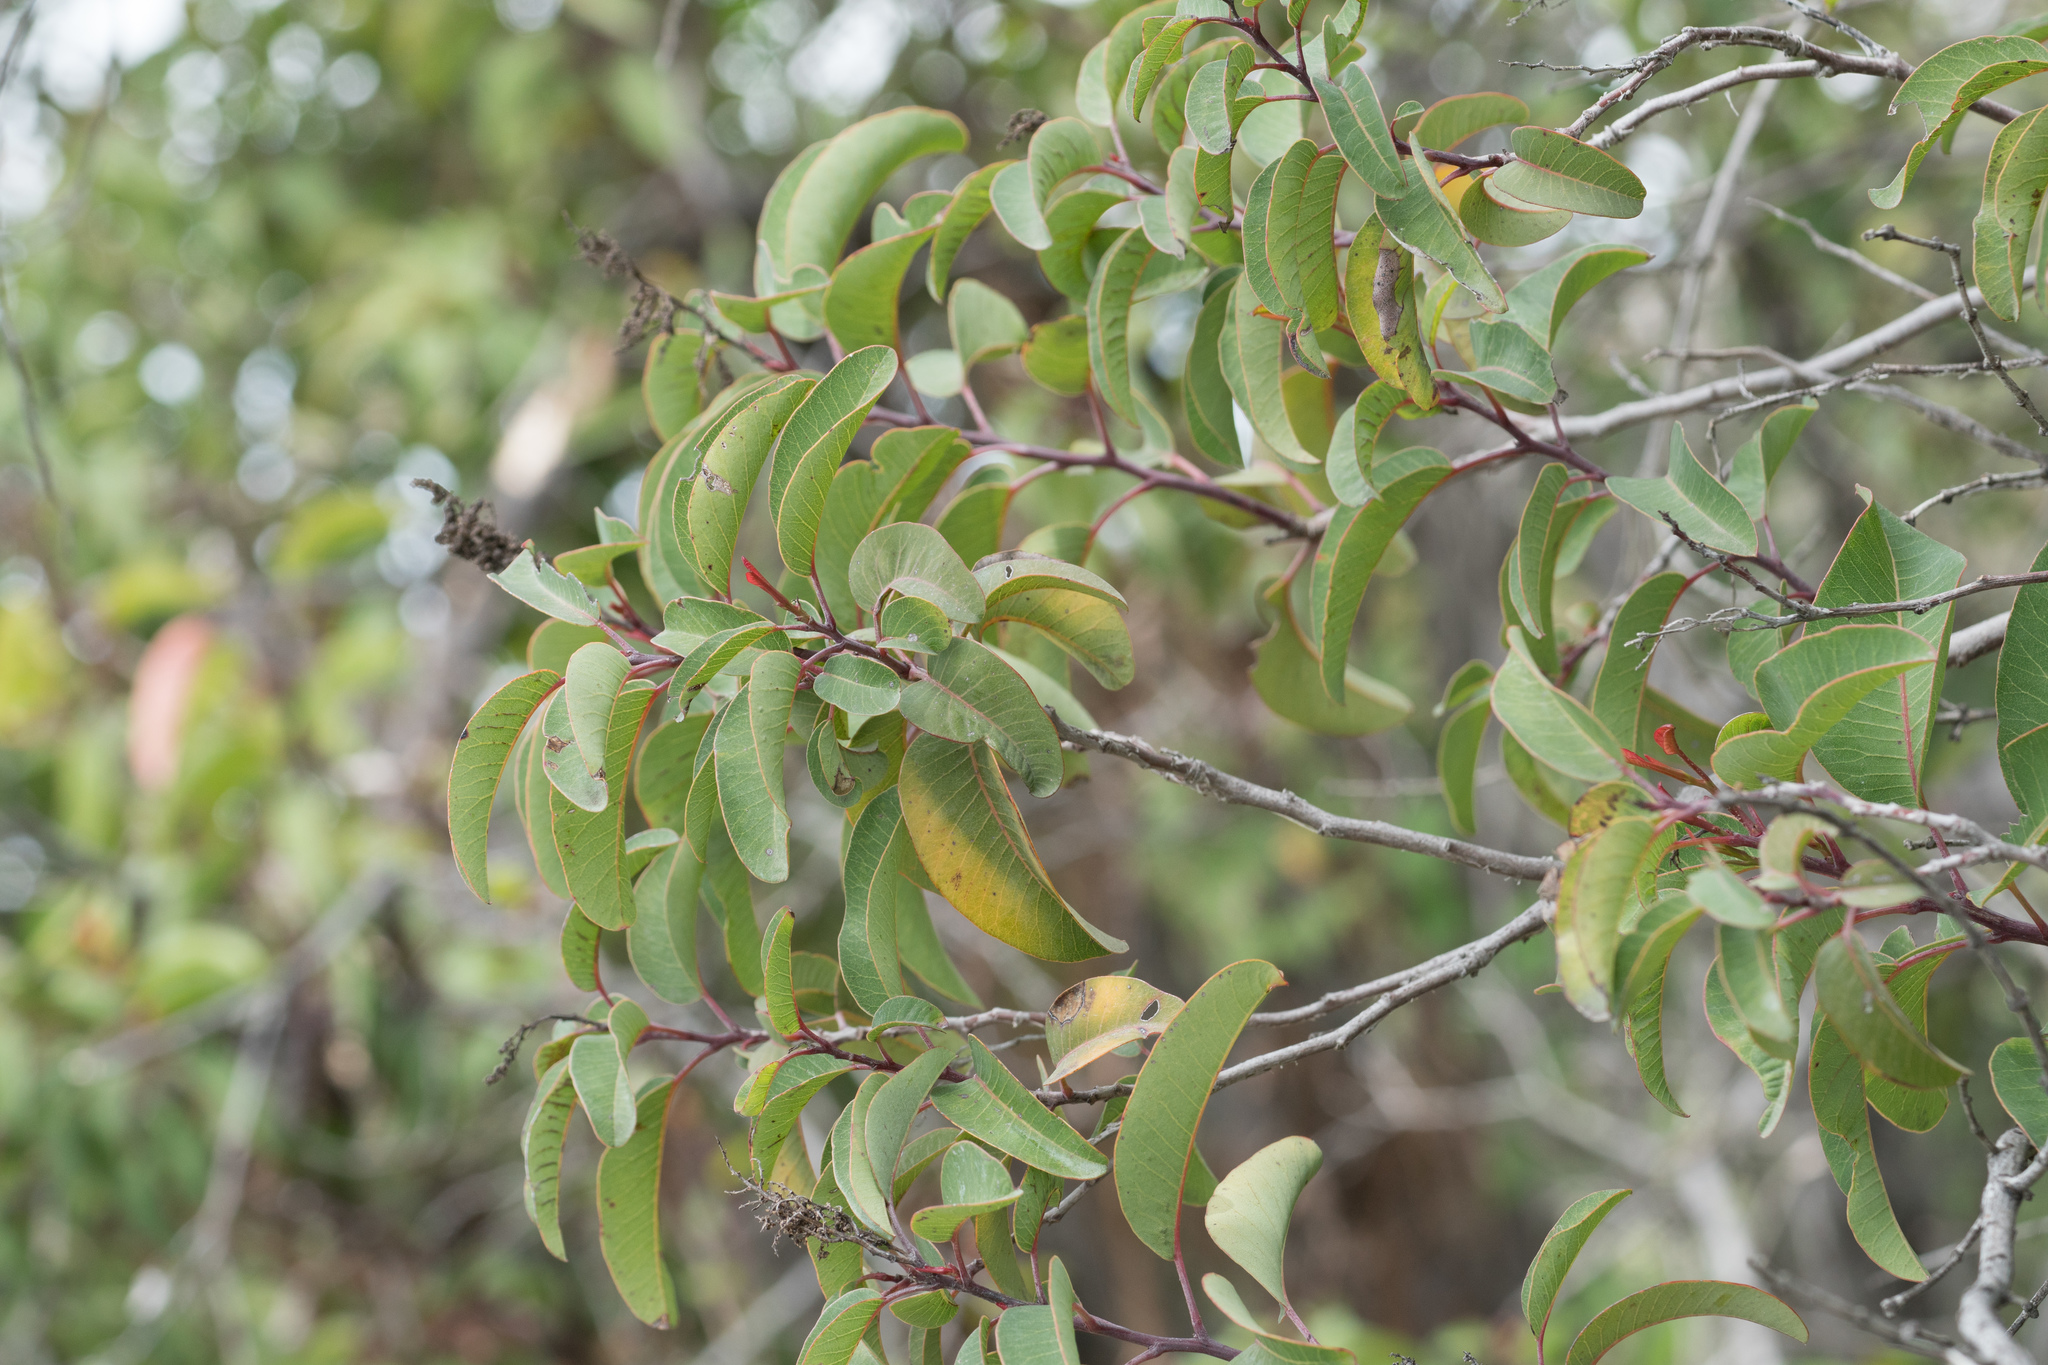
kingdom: Plantae
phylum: Tracheophyta
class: Magnoliopsida
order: Sapindales
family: Anacardiaceae
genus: Malosma
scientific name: Malosma laurina
